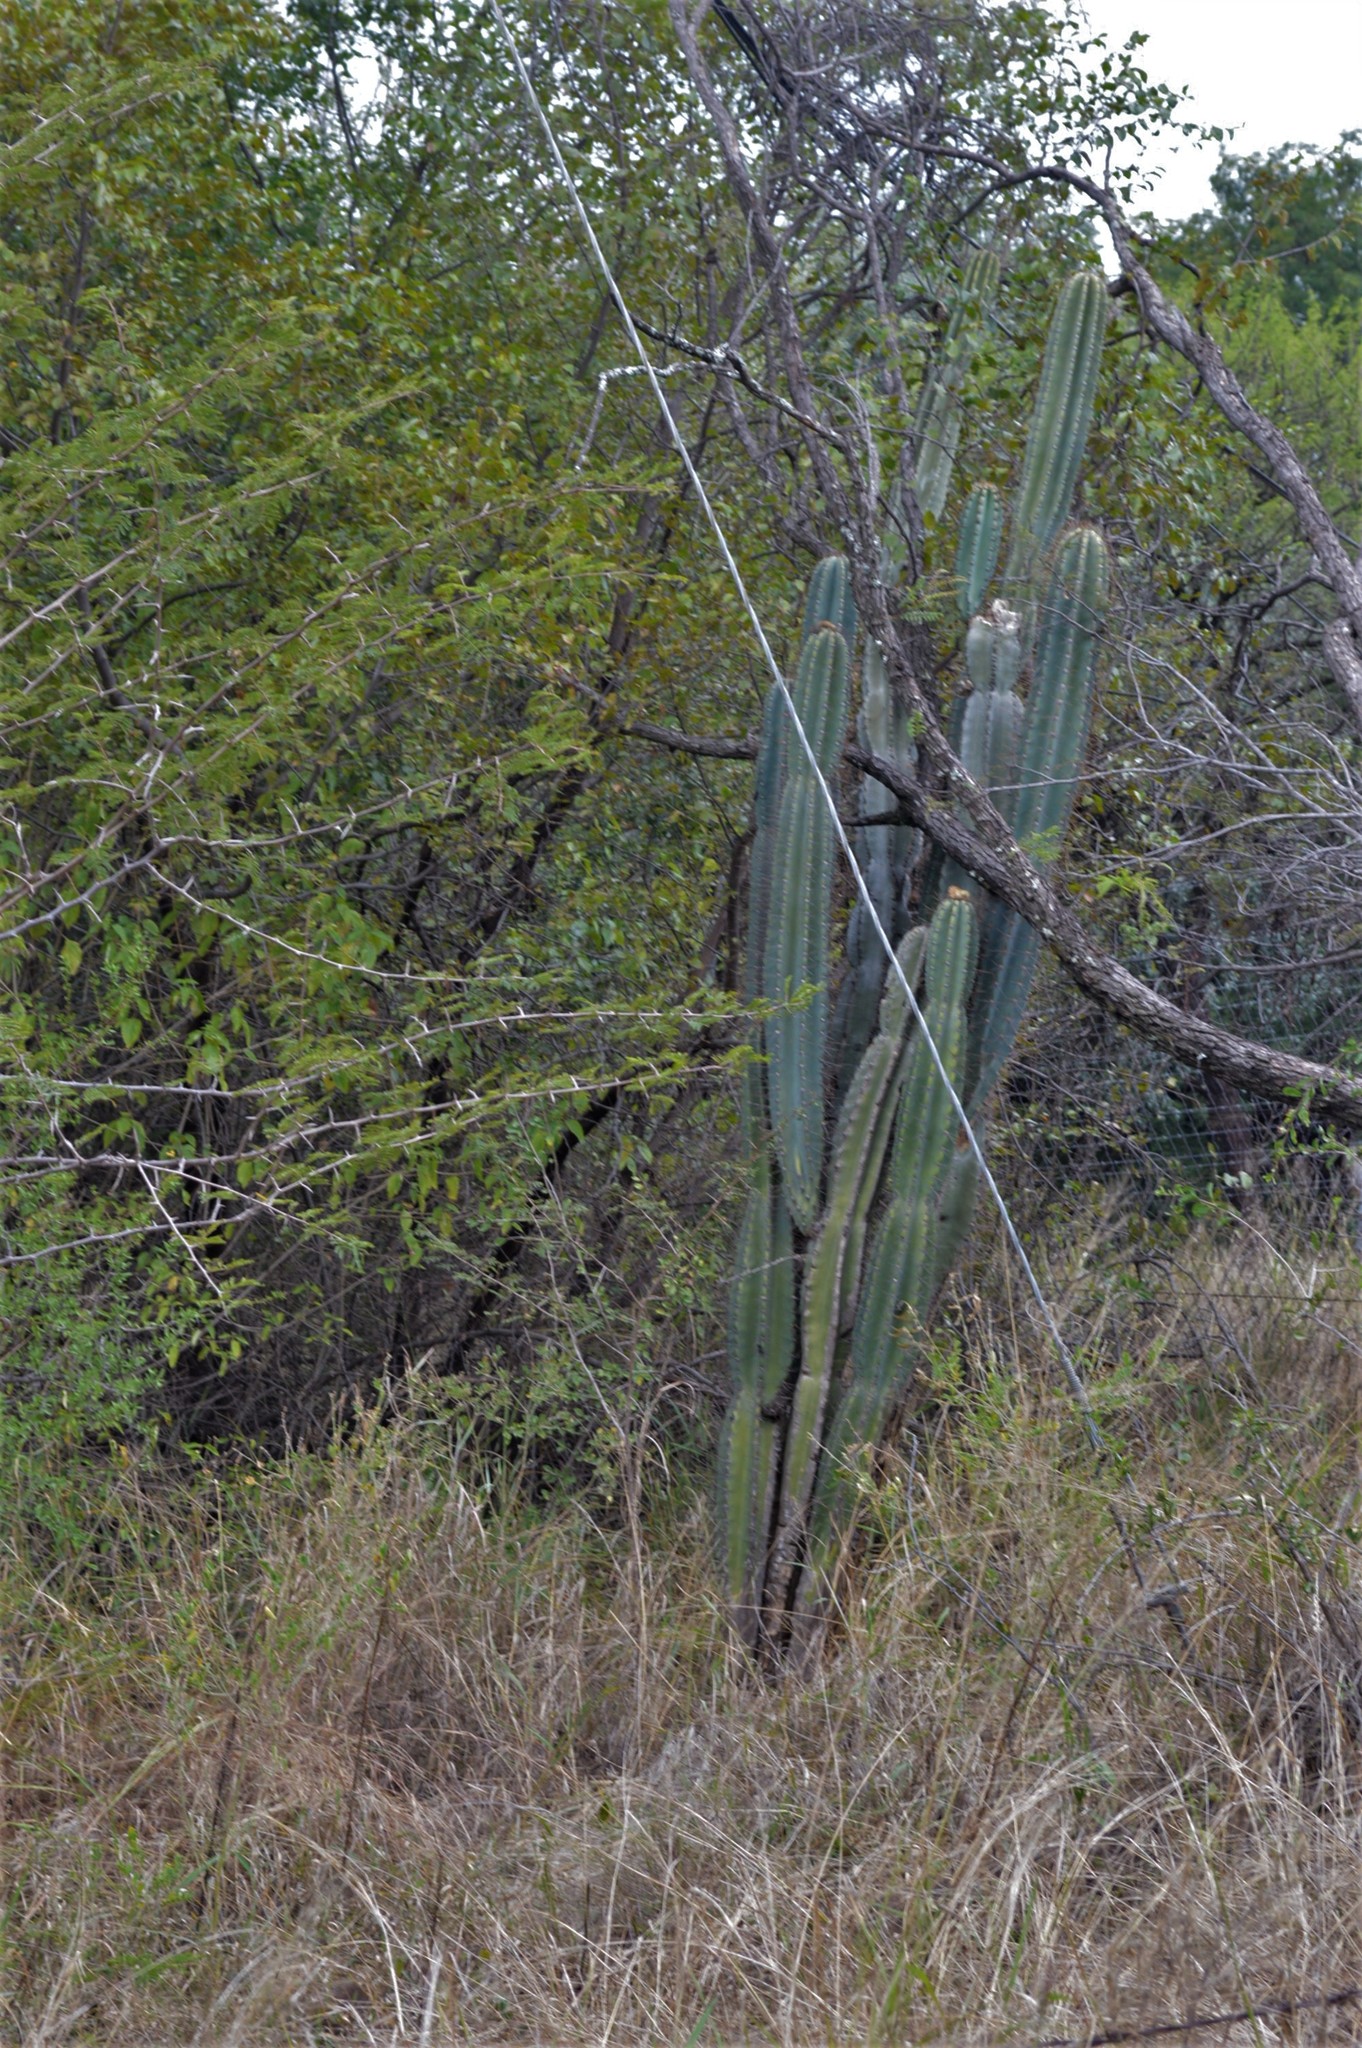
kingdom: Plantae
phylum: Tracheophyta
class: Magnoliopsida
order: Caryophyllales
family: Cactaceae
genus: Cereus
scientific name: Cereus jamacaru
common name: Queen-of-the-night
